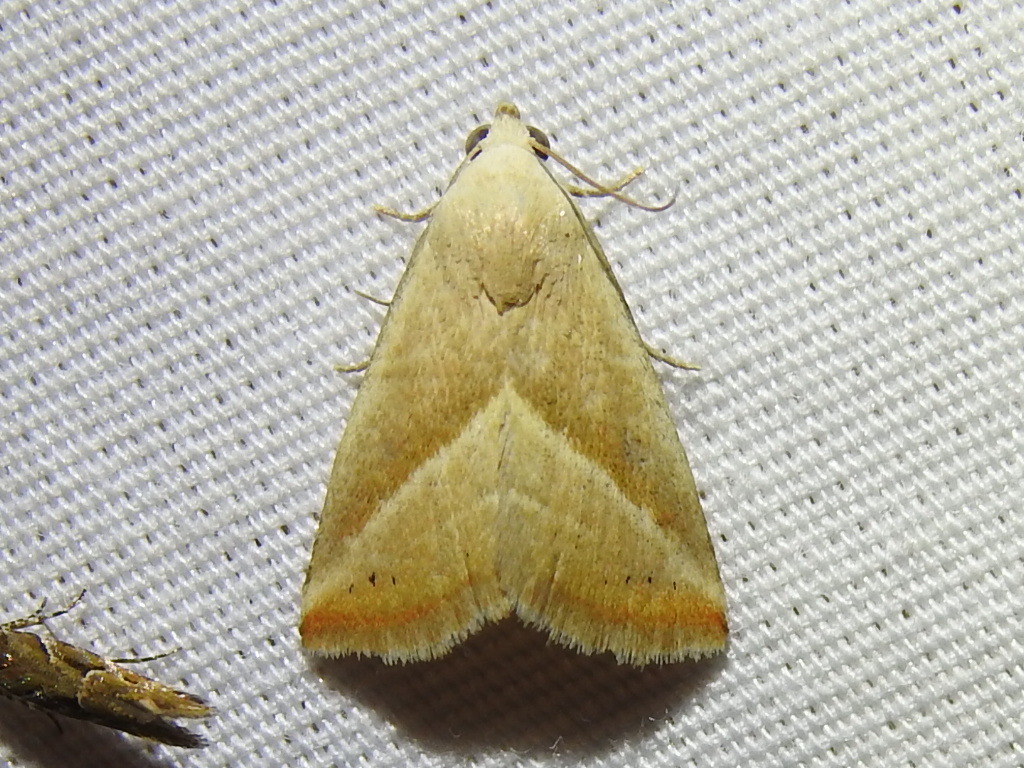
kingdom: Animalia
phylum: Arthropoda
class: Insecta
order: Lepidoptera
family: Noctuidae
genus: Eublemma
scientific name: Eublemma recta
